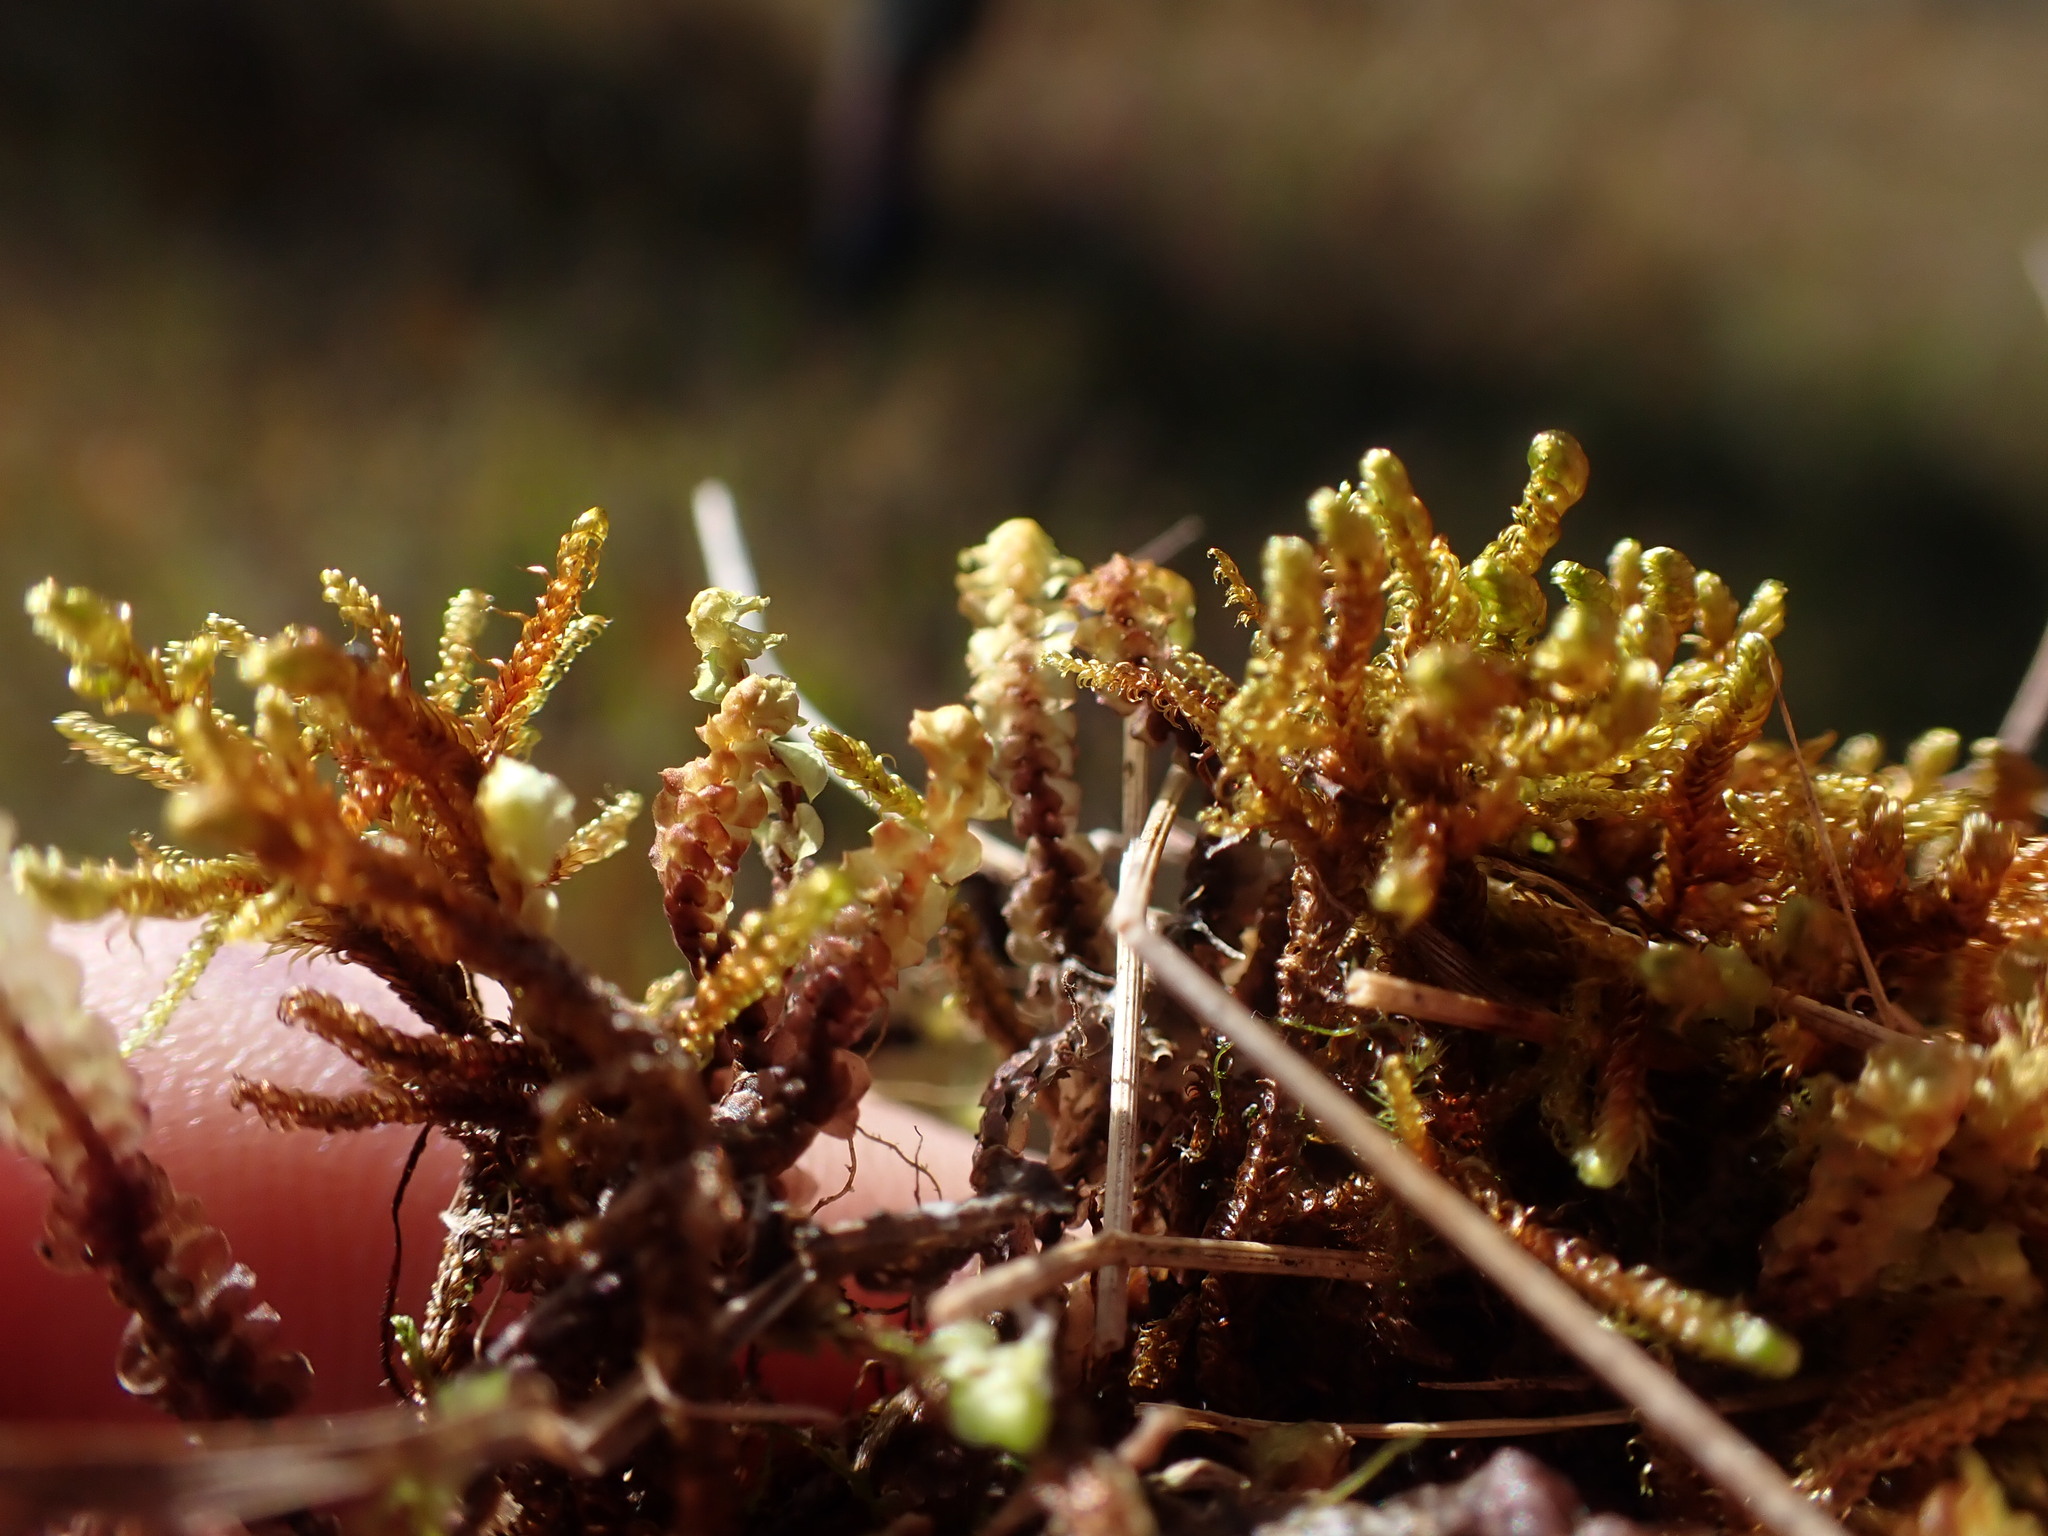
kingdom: Plantae
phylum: Marchantiophyta
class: Jungermanniopsida
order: Jungermanniales
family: Scapaniaceae
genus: Scapania
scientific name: Scapania paludosa
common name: Floppy earwort
